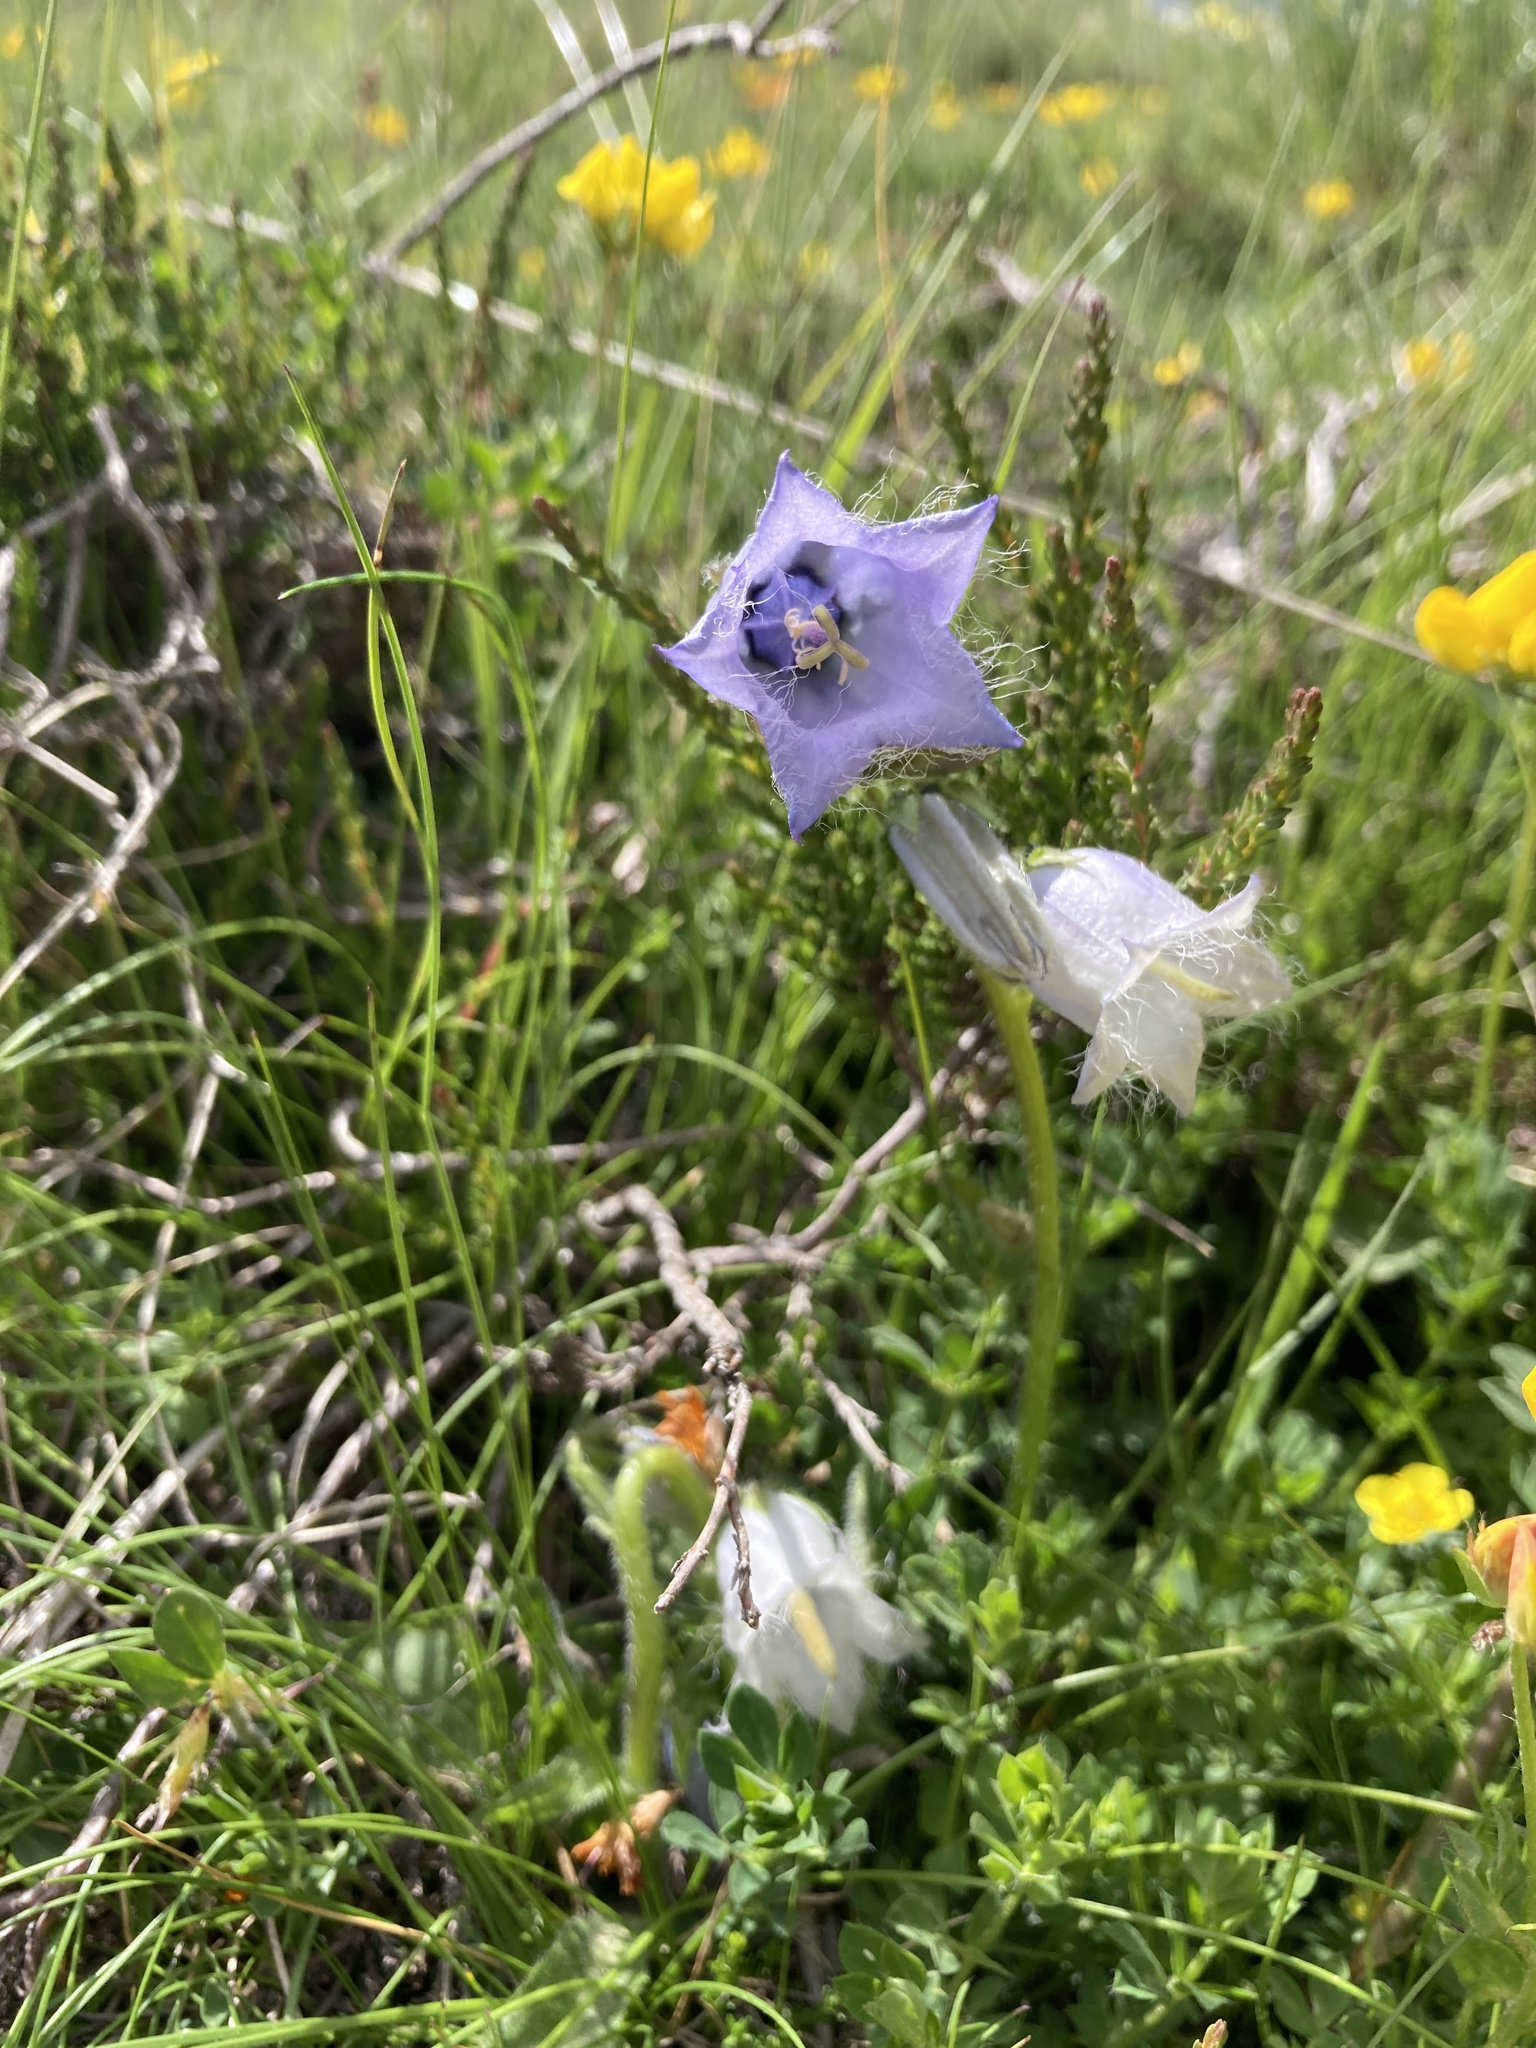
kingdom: Plantae
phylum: Tracheophyta
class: Magnoliopsida
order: Asterales
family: Campanulaceae
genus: Campanula
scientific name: Campanula barbata
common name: Bearded bellflower
